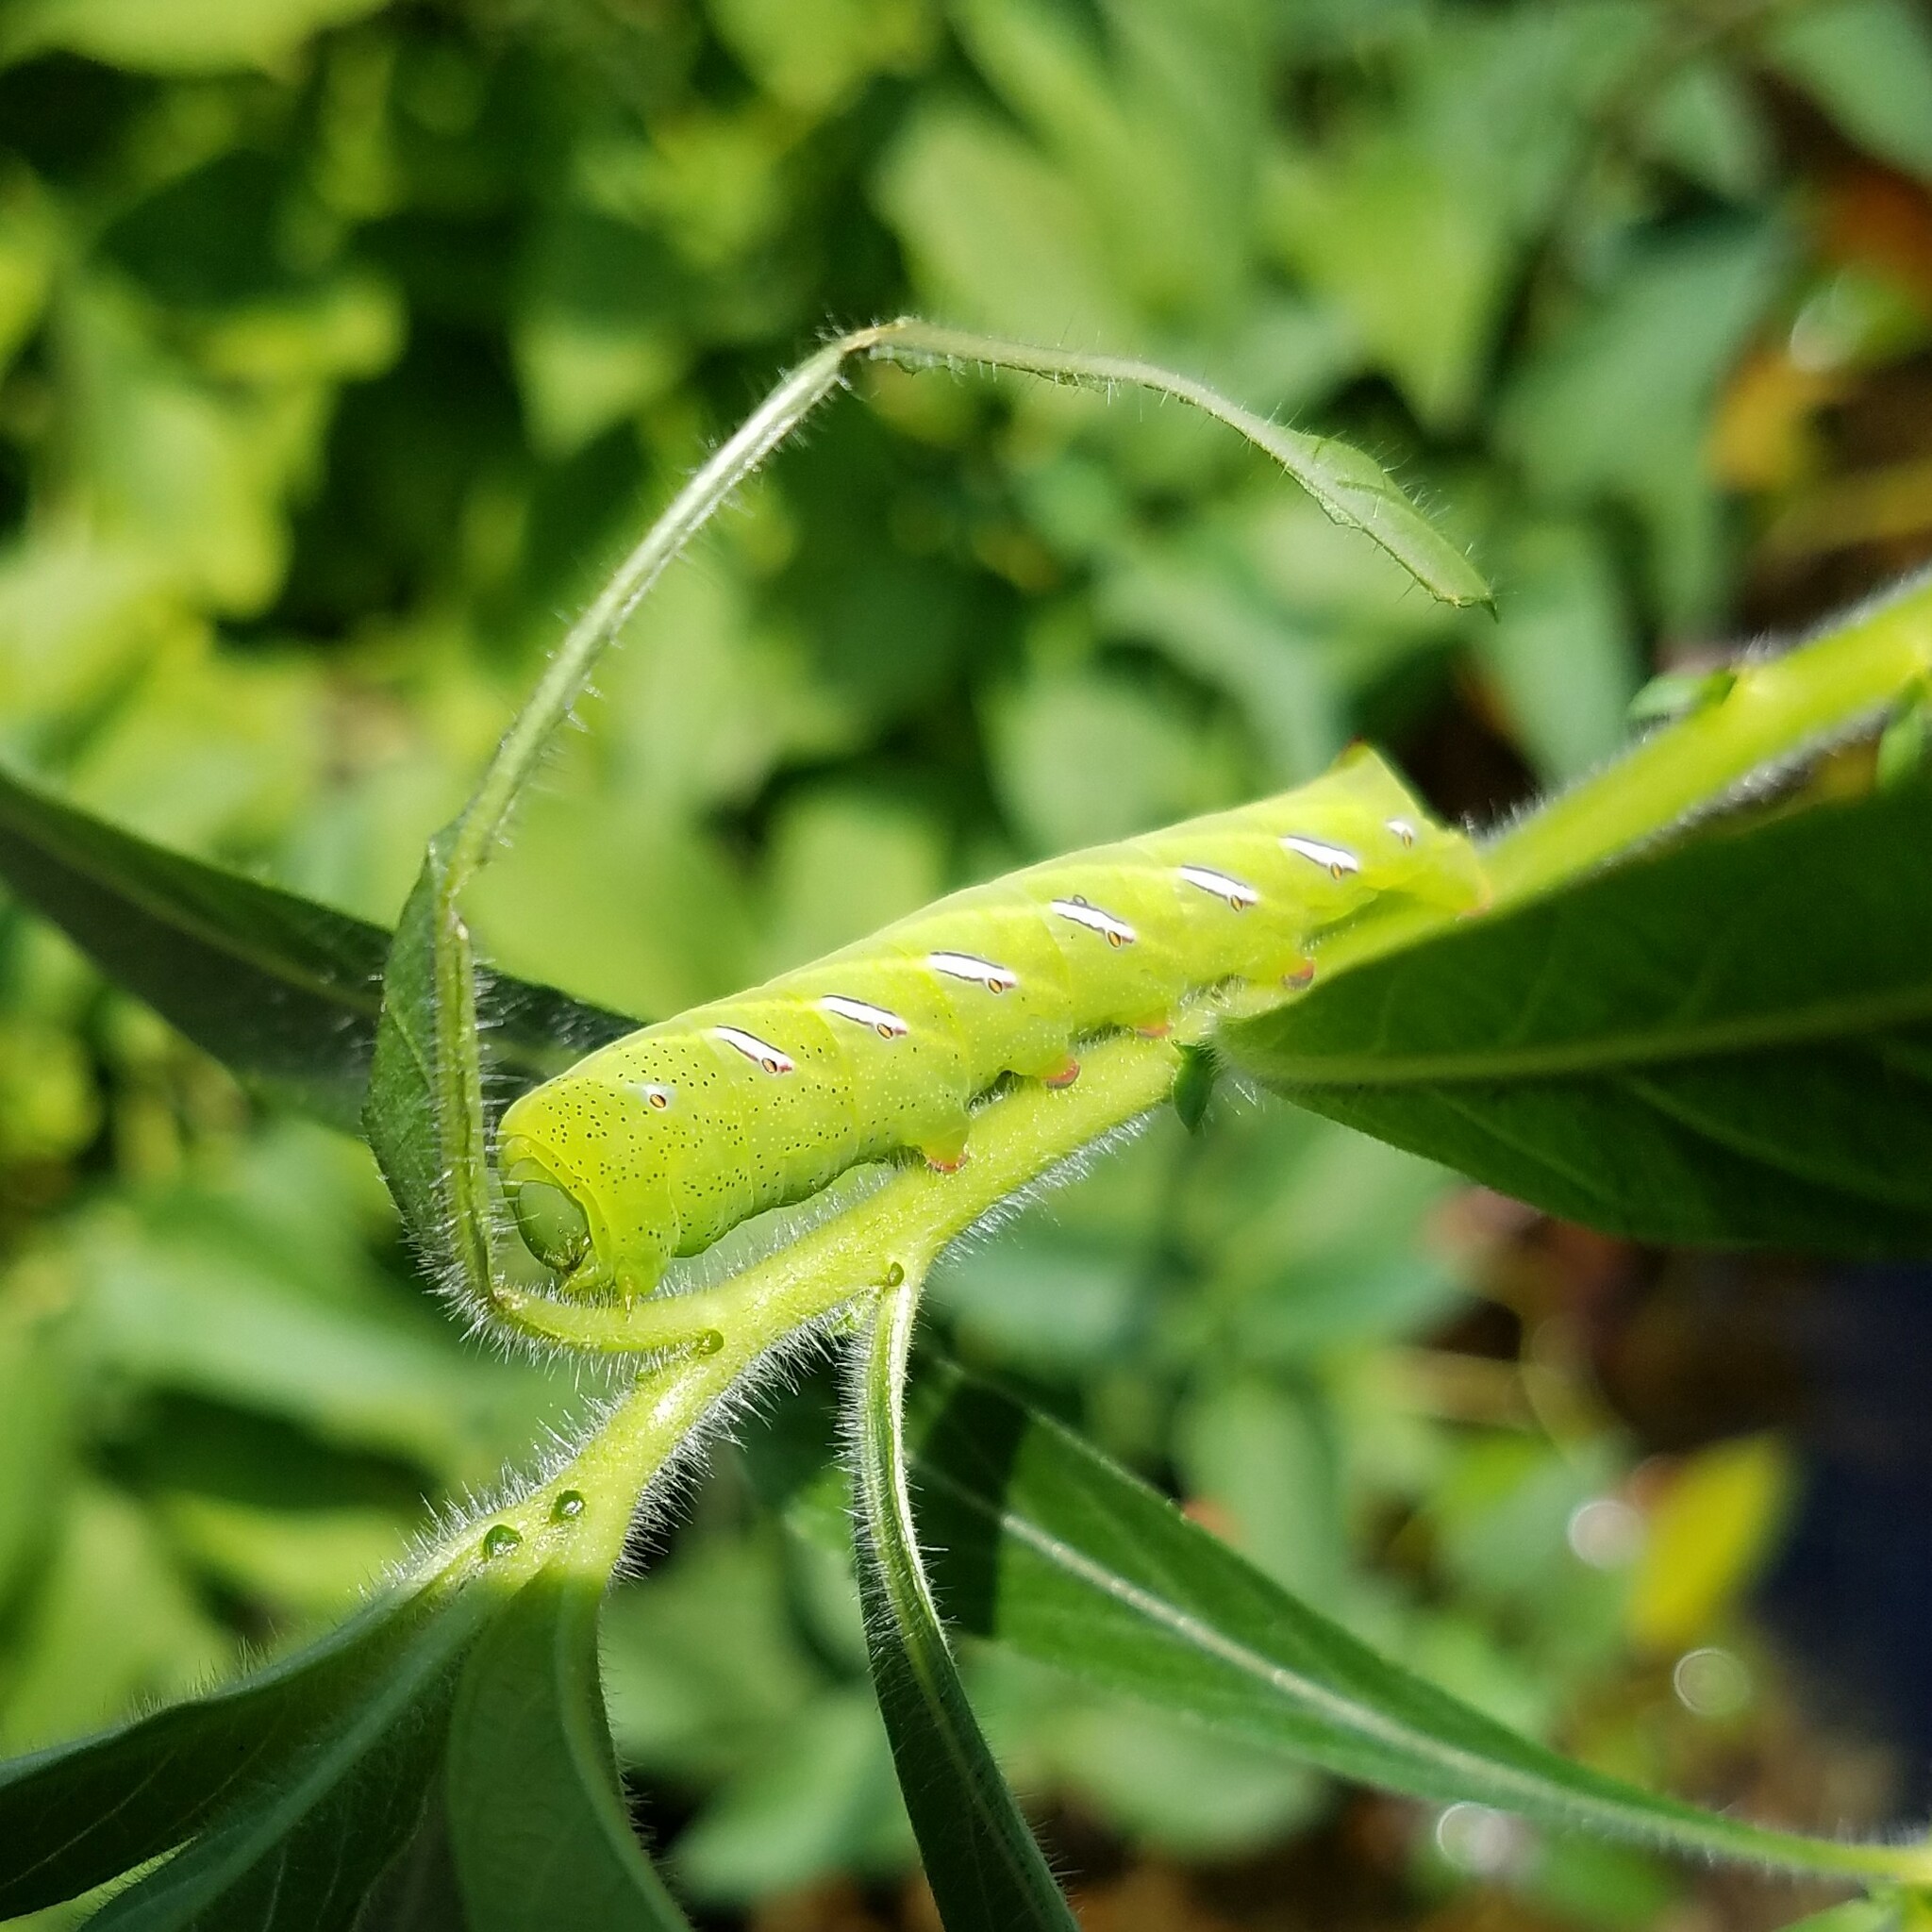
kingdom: Animalia
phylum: Arthropoda
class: Insecta
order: Lepidoptera
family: Sphingidae
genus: Eumorpha
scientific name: Eumorpha fasciatus
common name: Banded sphinx
